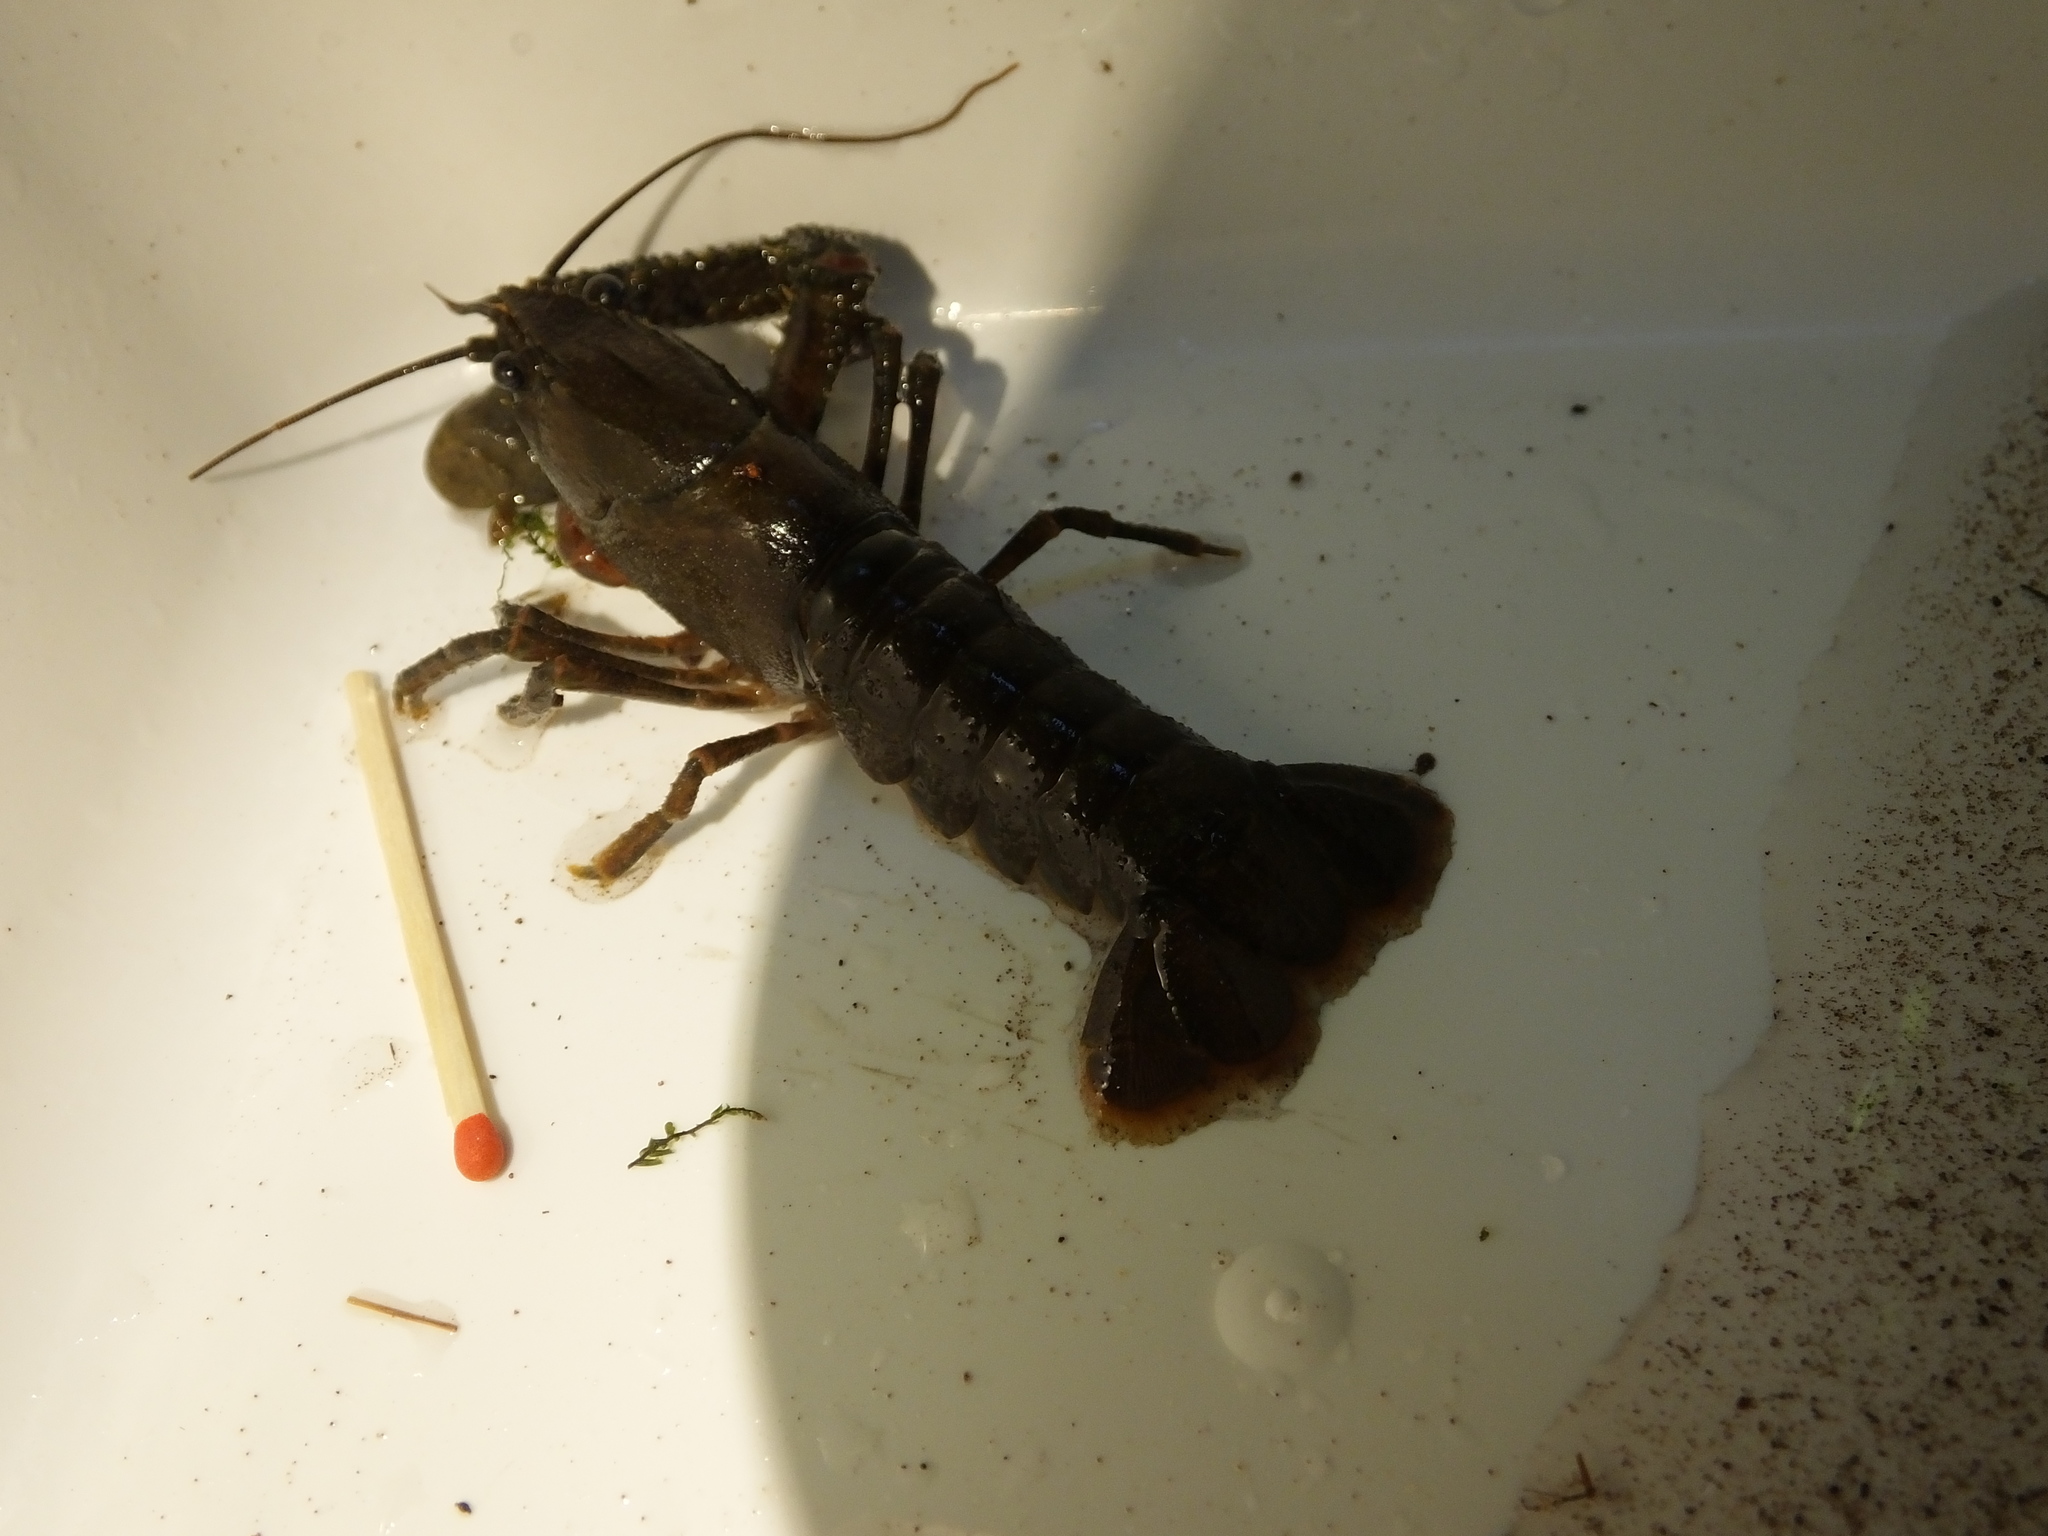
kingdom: Animalia
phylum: Arthropoda
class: Malacostraca
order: Decapoda
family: Parastacidae
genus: Paranephrops
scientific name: Paranephrops planifrons
